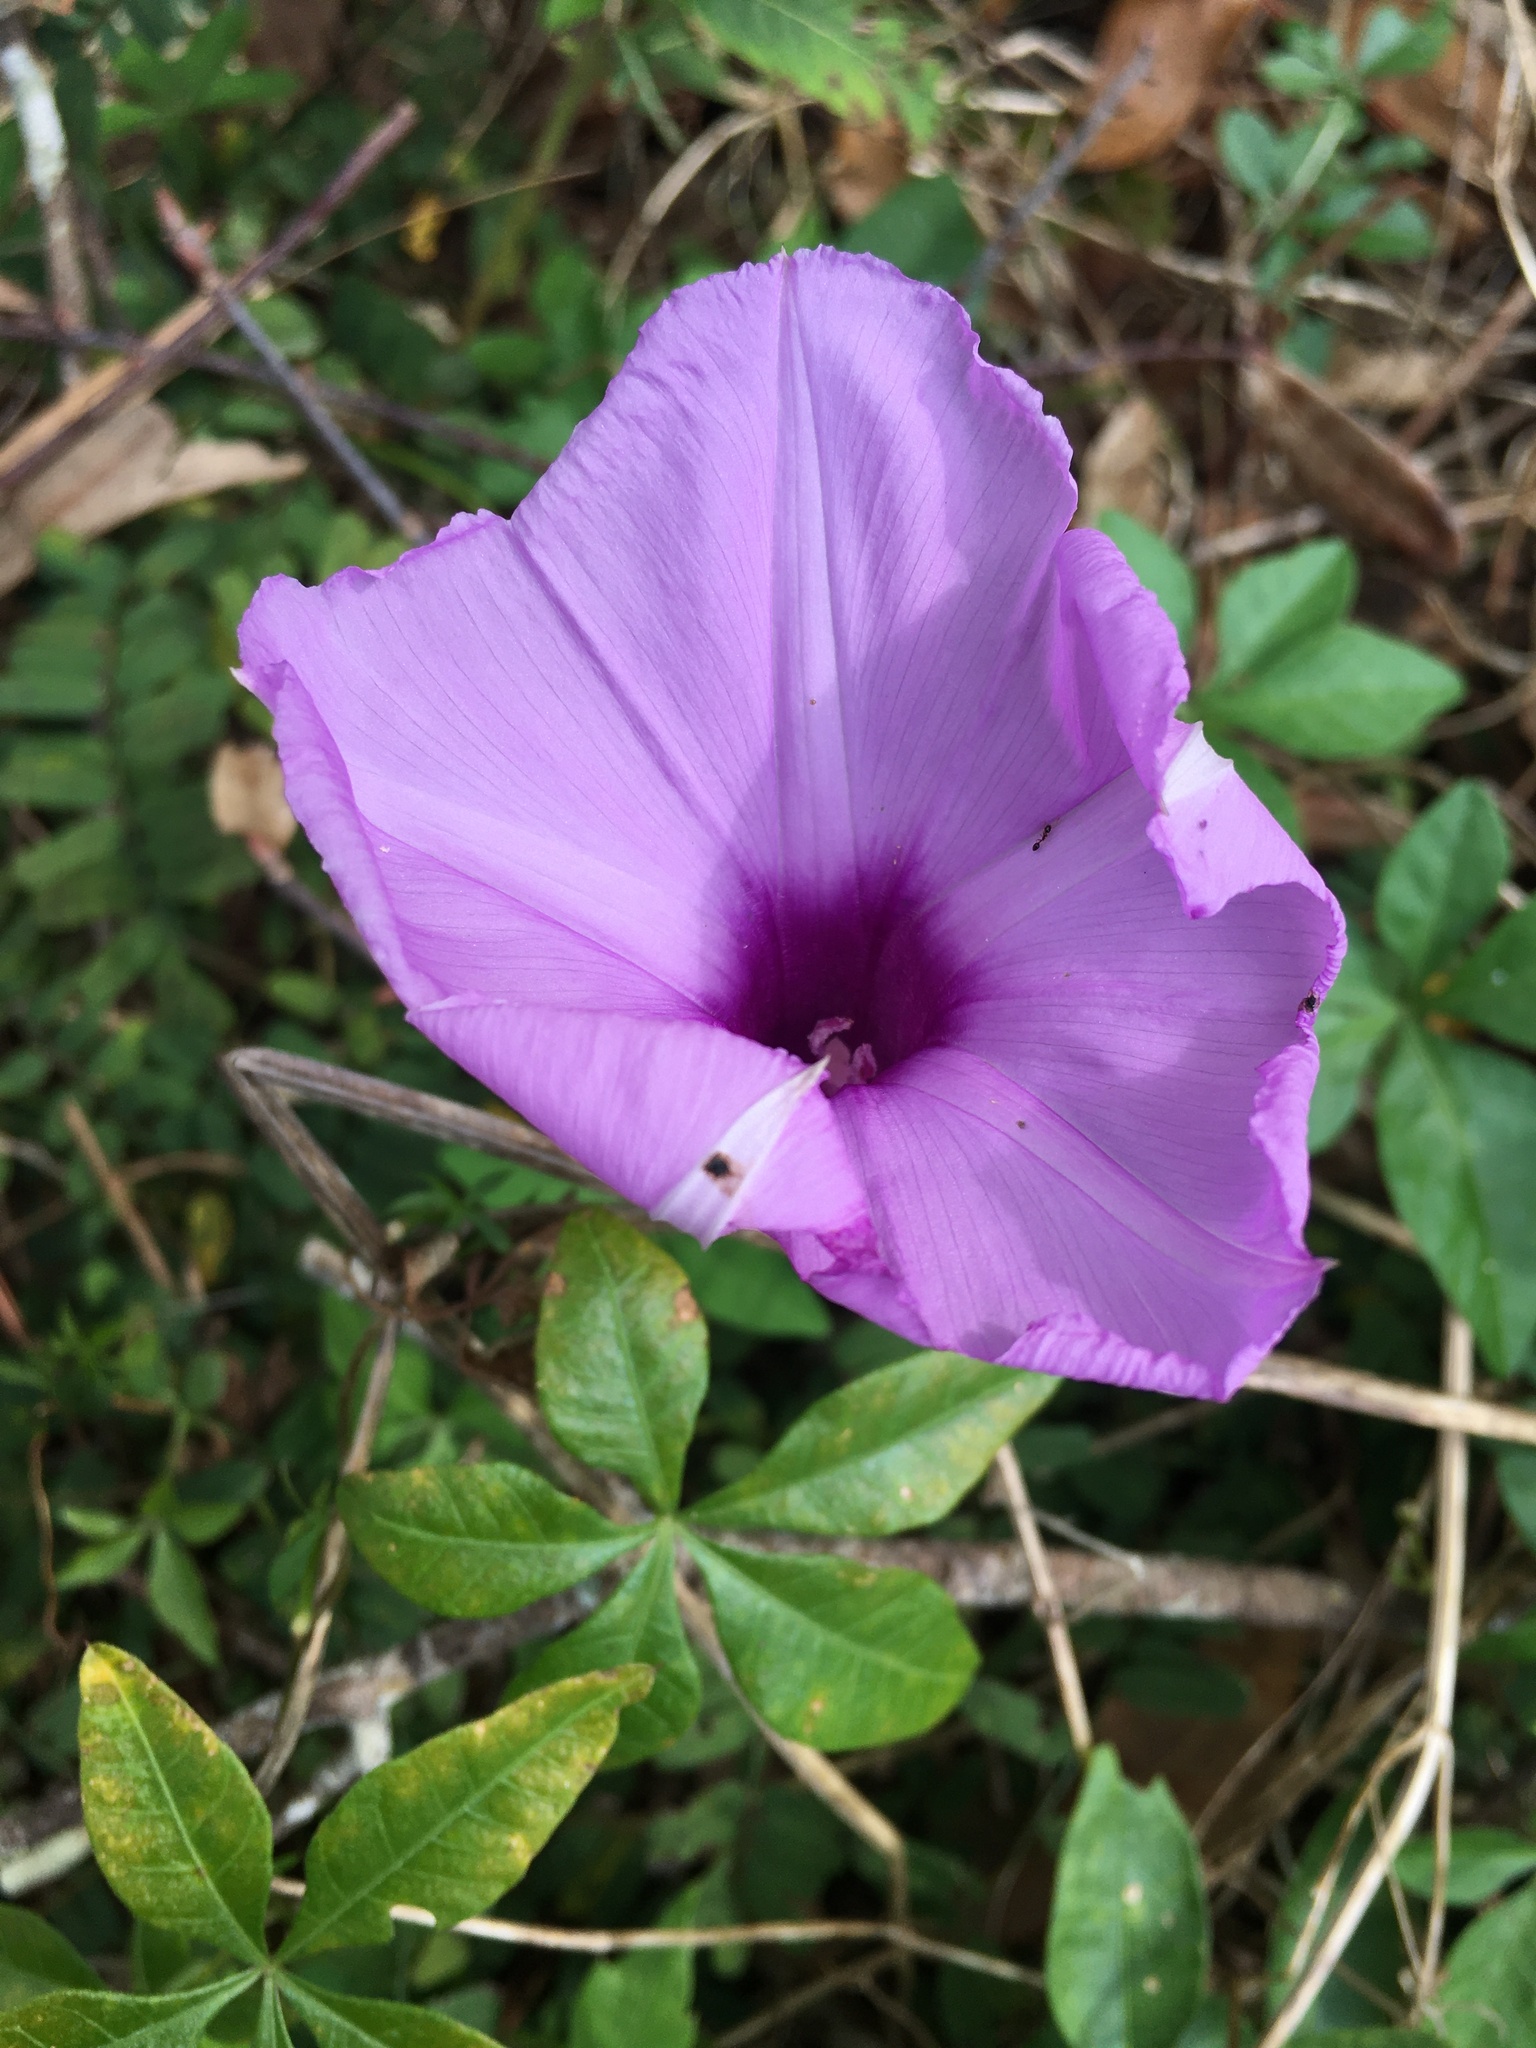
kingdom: Plantae
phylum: Tracheophyta
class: Magnoliopsida
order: Solanales
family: Convolvulaceae
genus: Ipomoea
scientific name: Ipomoea cairica
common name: Mile a minute vine
